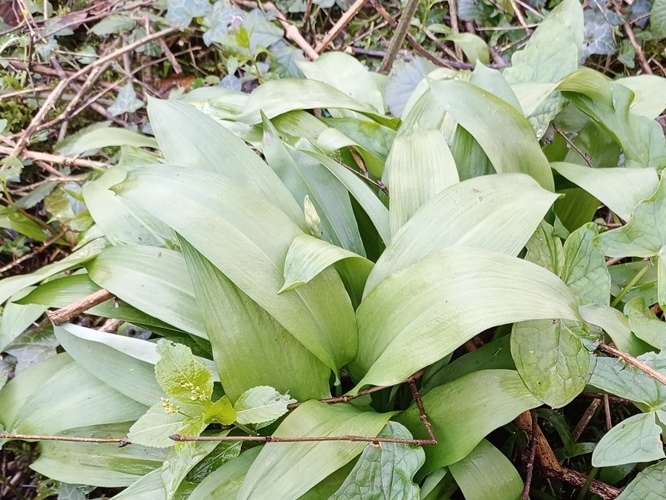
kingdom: Plantae
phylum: Tracheophyta
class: Liliopsida
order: Asparagales
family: Amaryllidaceae
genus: Allium
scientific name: Allium ursinum
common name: Ramsons
